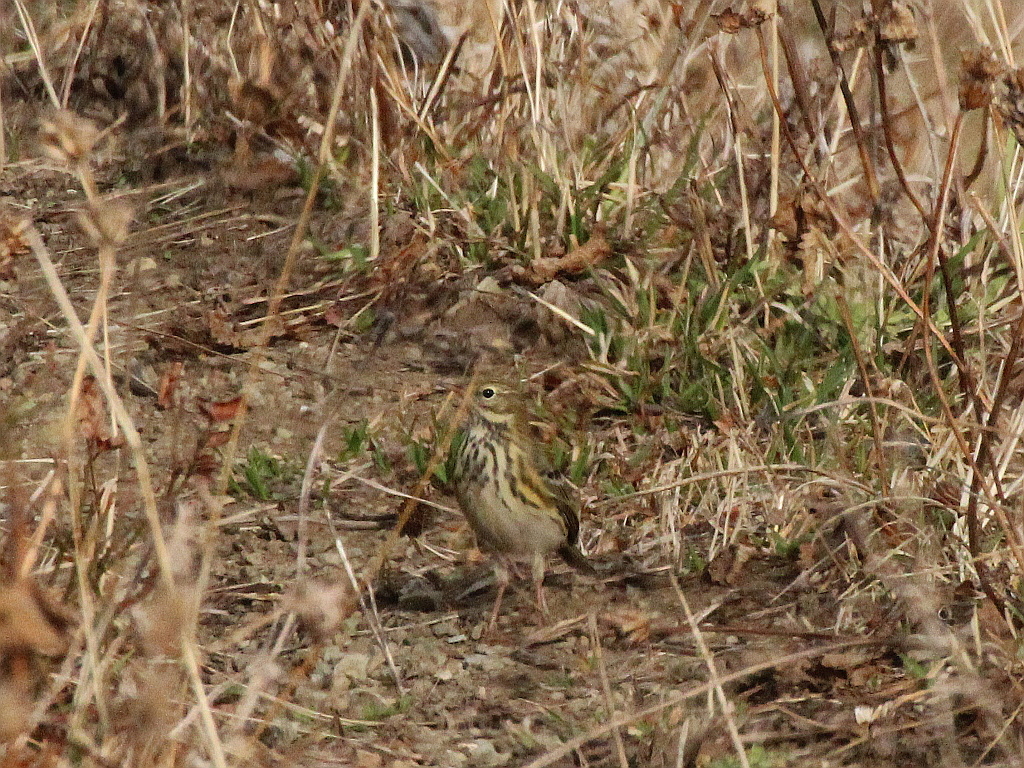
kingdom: Animalia
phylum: Chordata
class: Aves
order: Passeriformes
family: Motacillidae
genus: Anthus
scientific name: Anthus pratensis
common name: Meadow pipit
